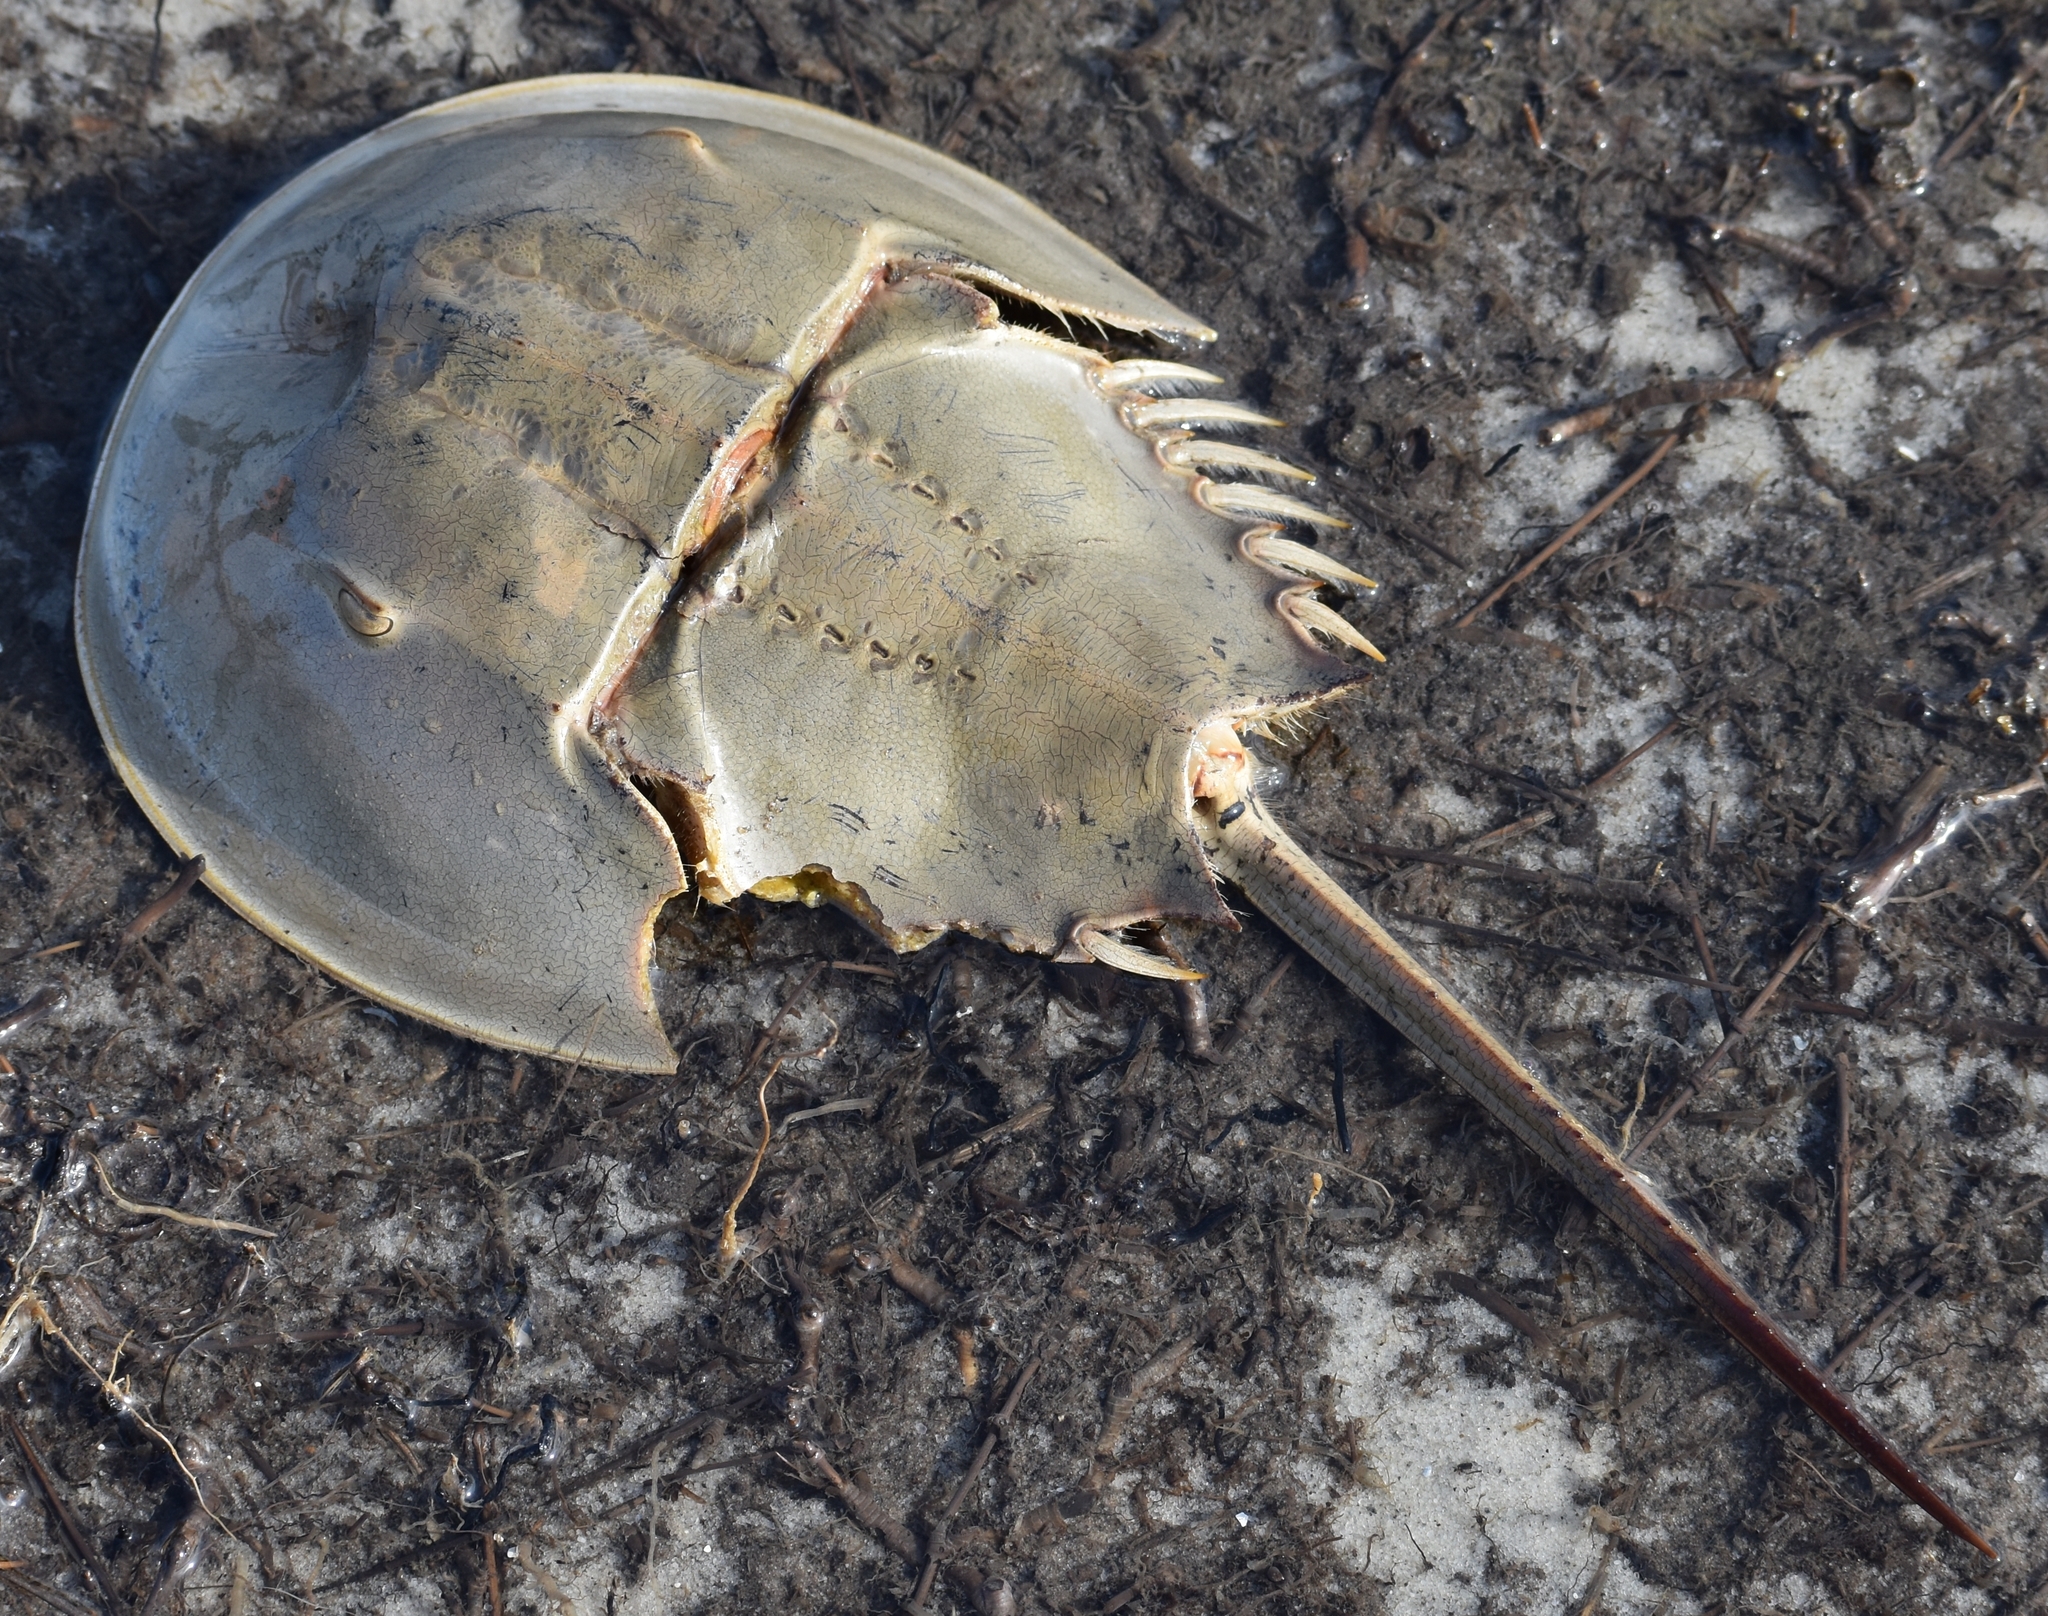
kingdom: Animalia
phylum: Arthropoda
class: Merostomata
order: Xiphosurida
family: Limulidae
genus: Limulus
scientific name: Limulus polyphemus
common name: Horseshoe crab
